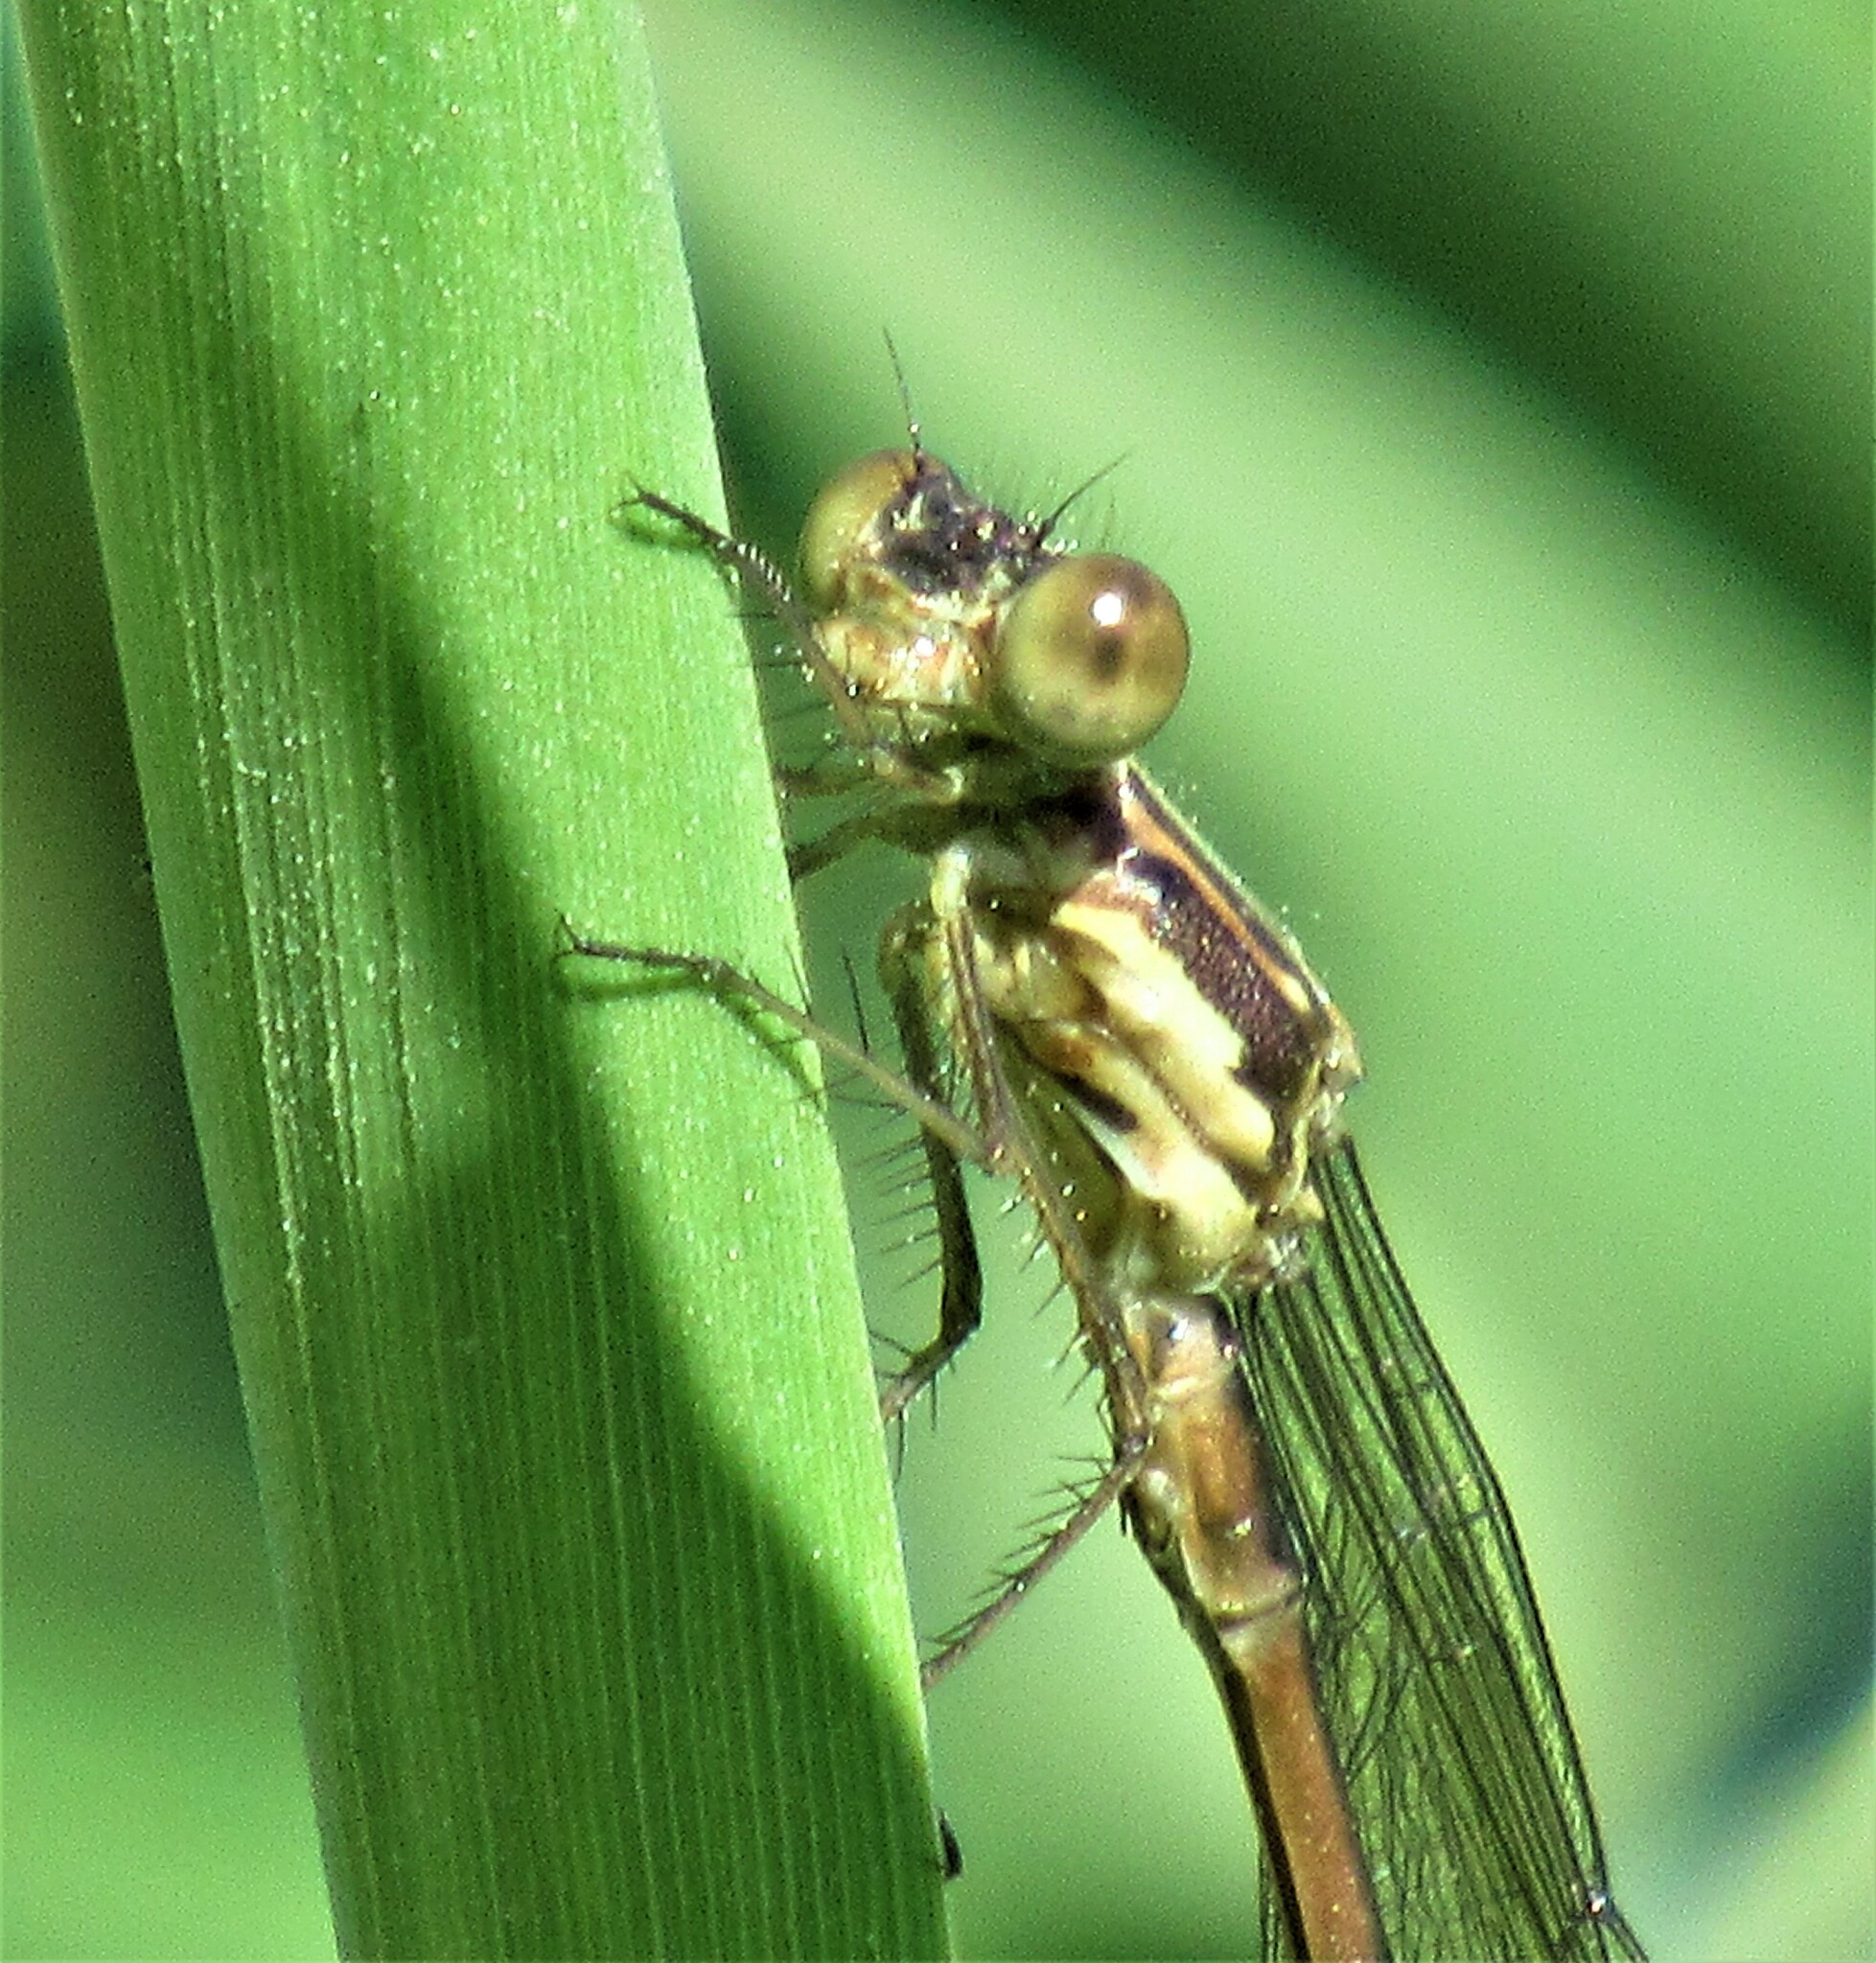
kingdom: Animalia
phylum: Arthropoda
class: Insecta
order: Odonata
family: Lestidae
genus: Lestes
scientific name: Lestes congener
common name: Spotted spreadwing
